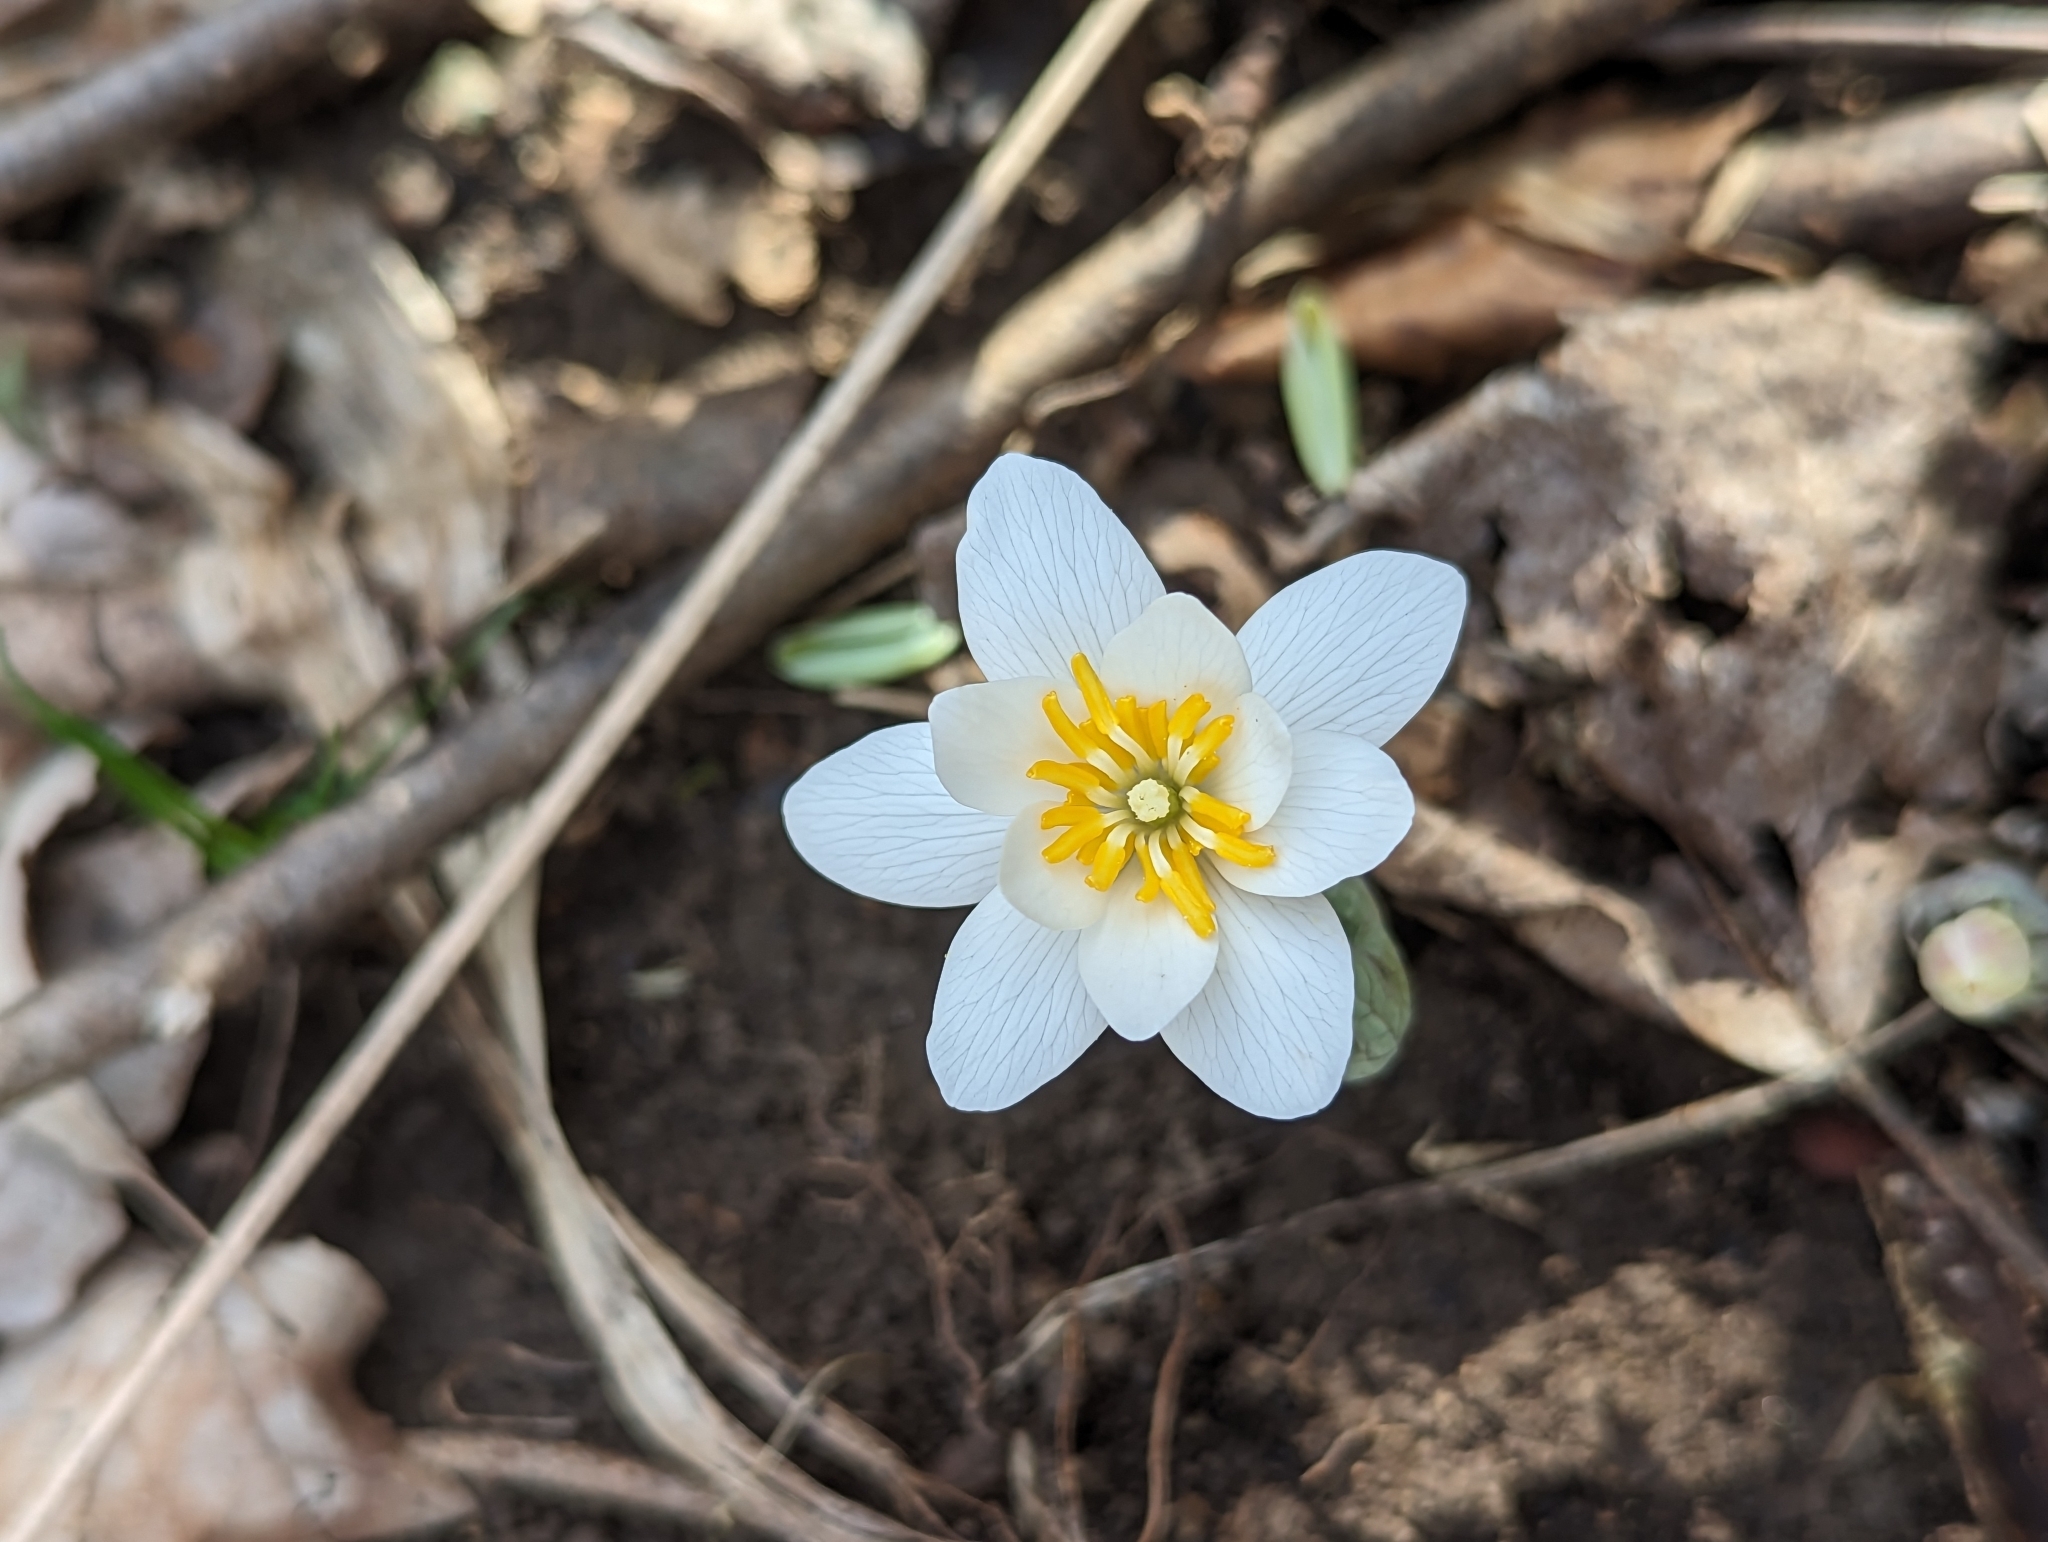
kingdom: Plantae
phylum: Tracheophyta
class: Magnoliopsida
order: Ranunculales
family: Papaveraceae
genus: Sanguinaria
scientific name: Sanguinaria canadensis
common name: Bloodroot
